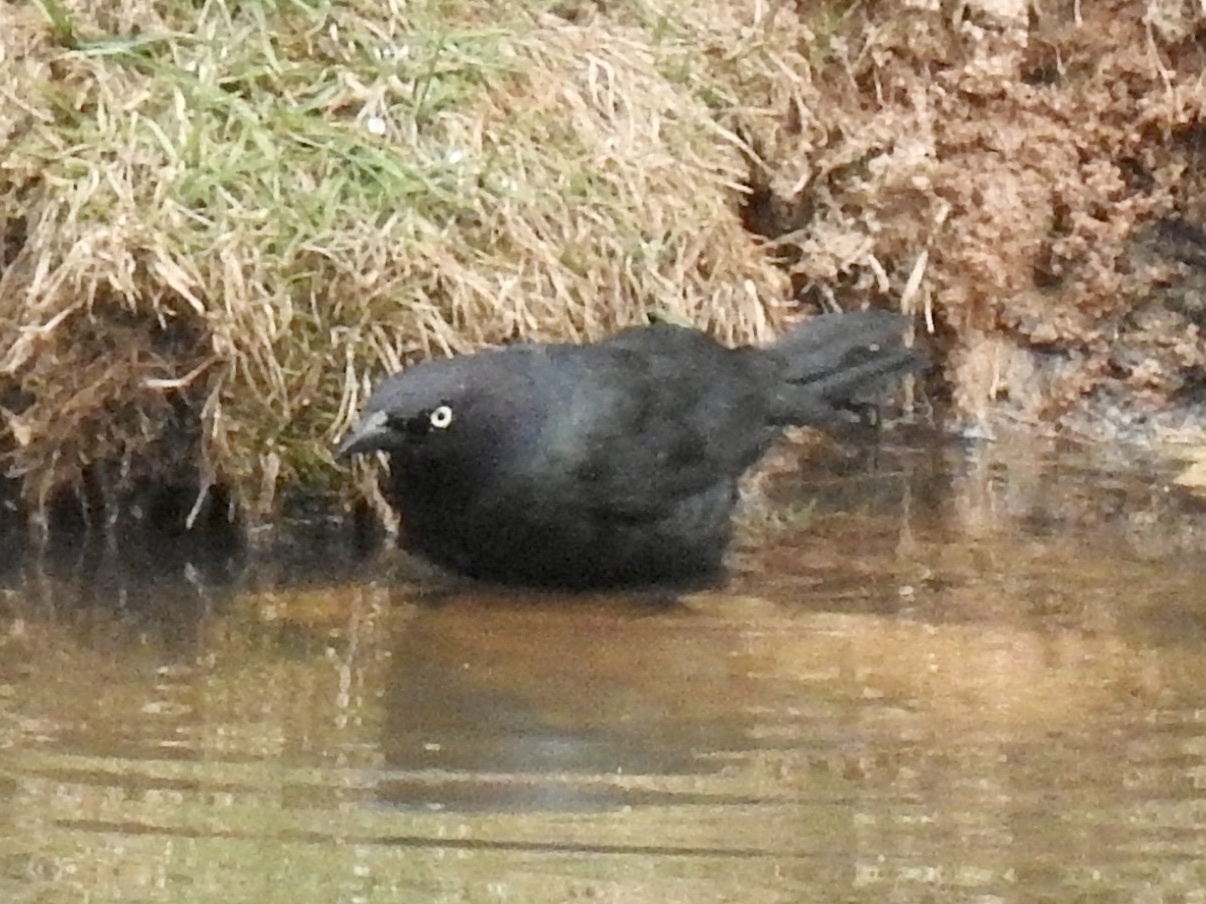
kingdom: Animalia
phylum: Chordata
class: Aves
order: Passeriformes
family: Icteridae
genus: Euphagus
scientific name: Euphagus cyanocephalus
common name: Brewer's blackbird
